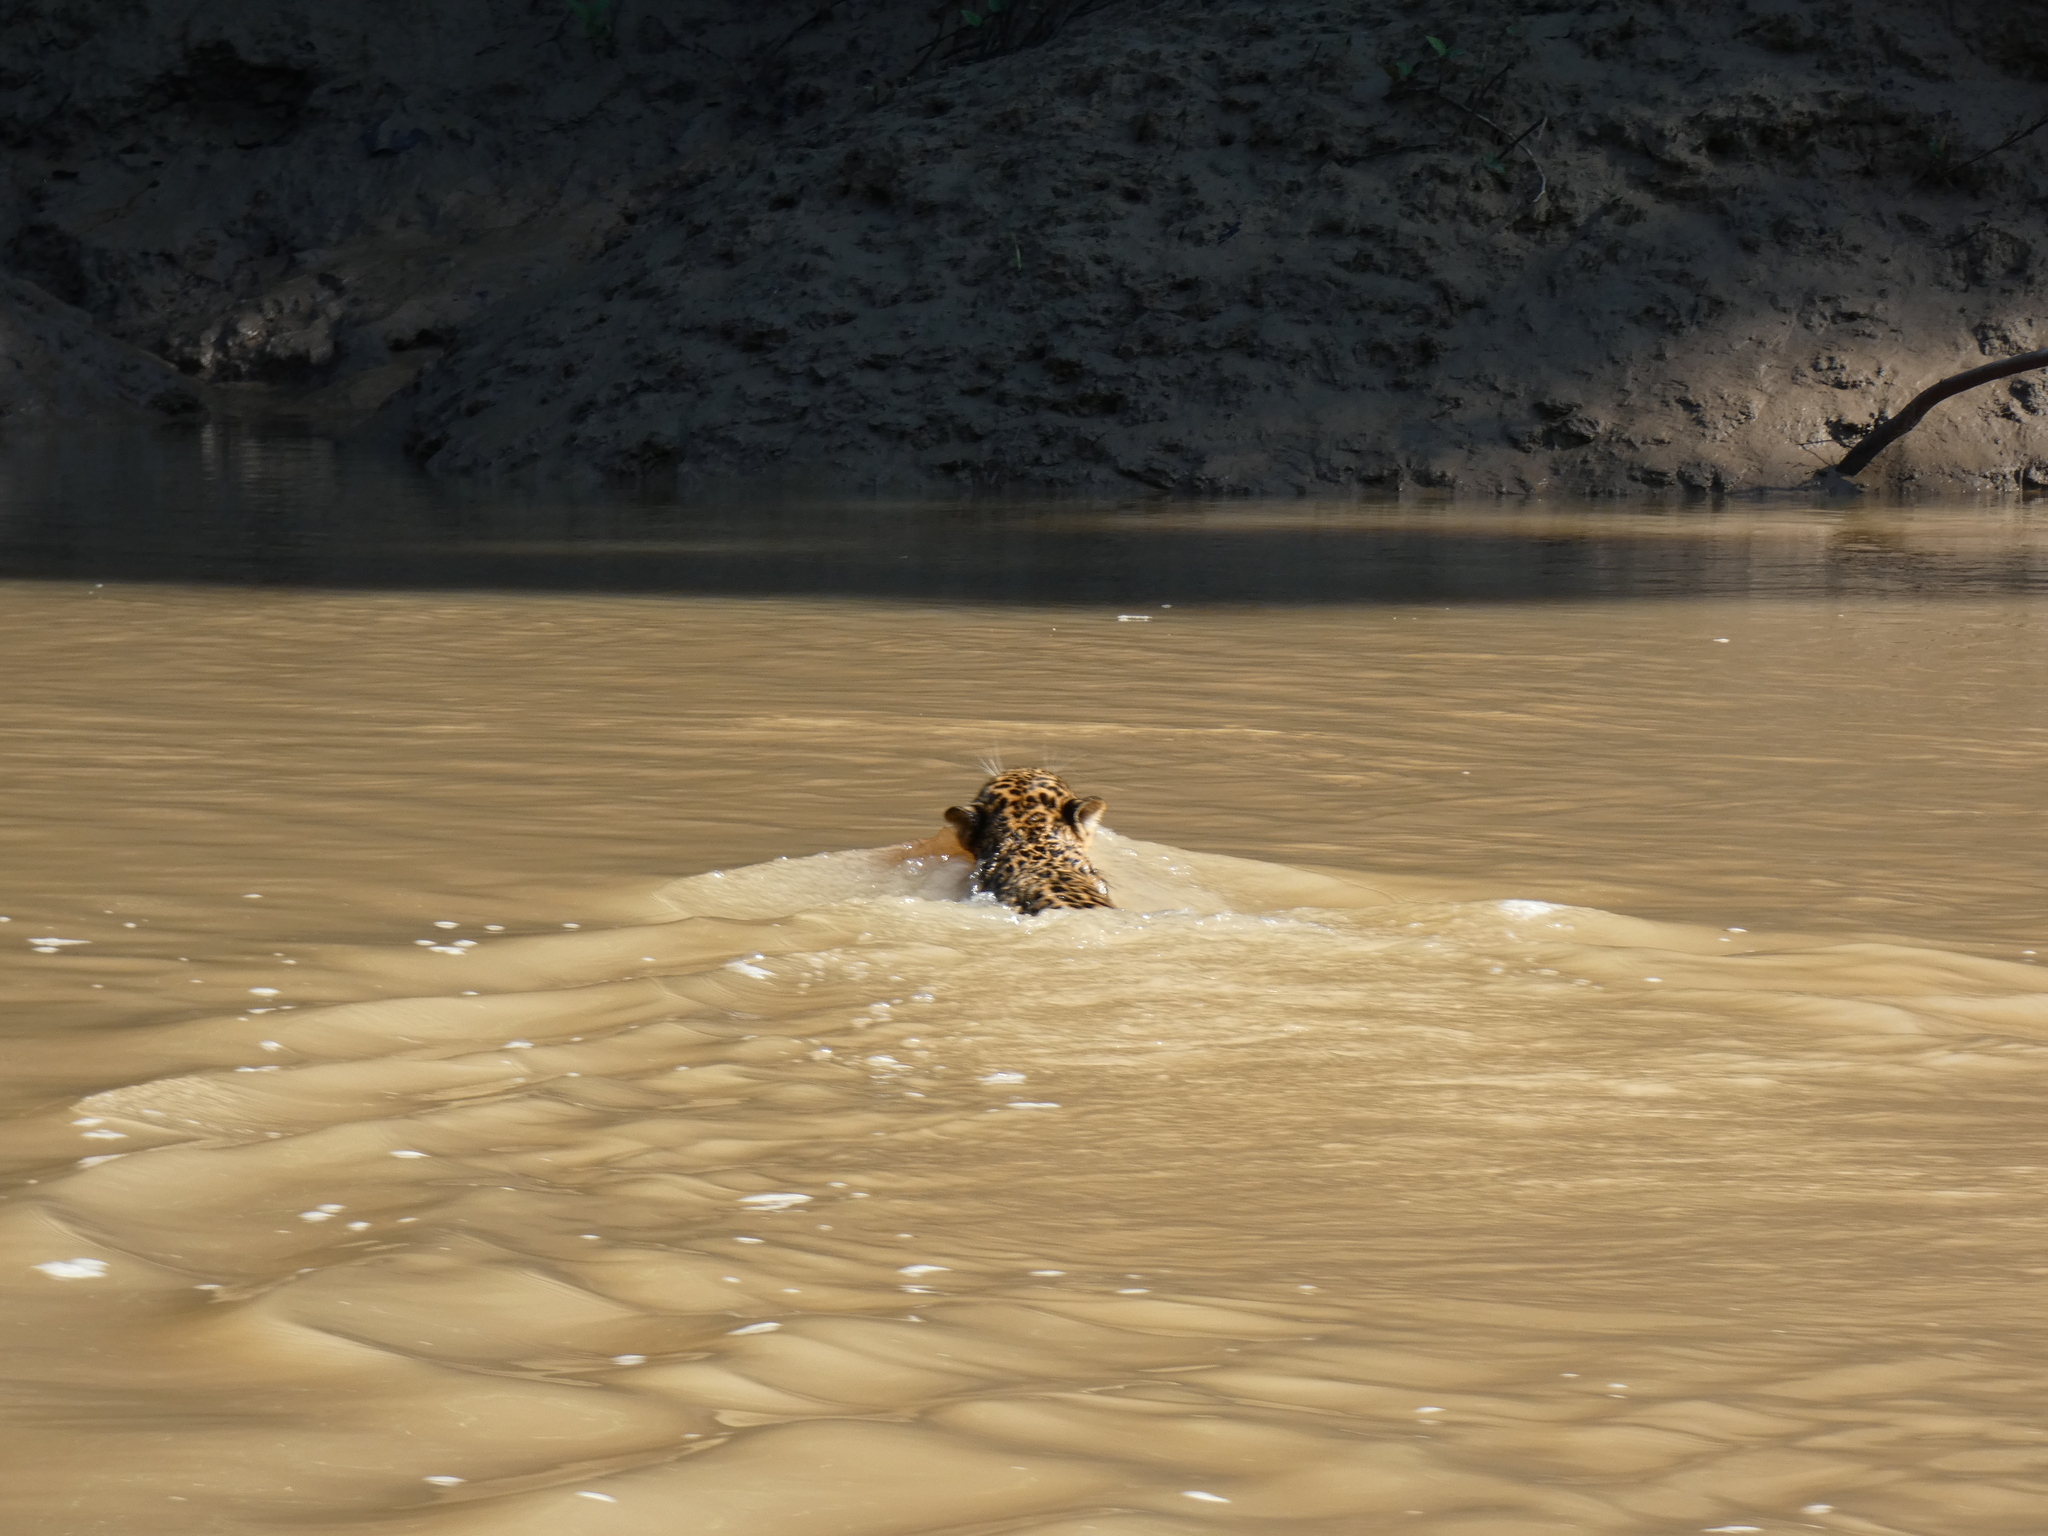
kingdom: Animalia
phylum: Chordata
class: Mammalia
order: Carnivora
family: Felidae
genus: Panthera
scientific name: Panthera onca
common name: Jaguar
